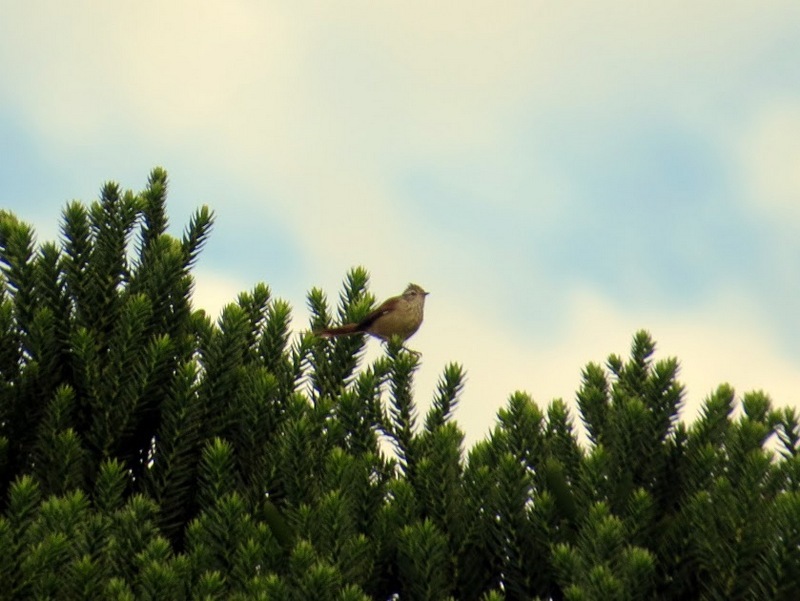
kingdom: Animalia
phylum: Chordata
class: Aves
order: Passeriformes
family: Furnariidae
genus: Leptasthenura
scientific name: Leptasthenura setaria
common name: Araucaria tit-spinetail
